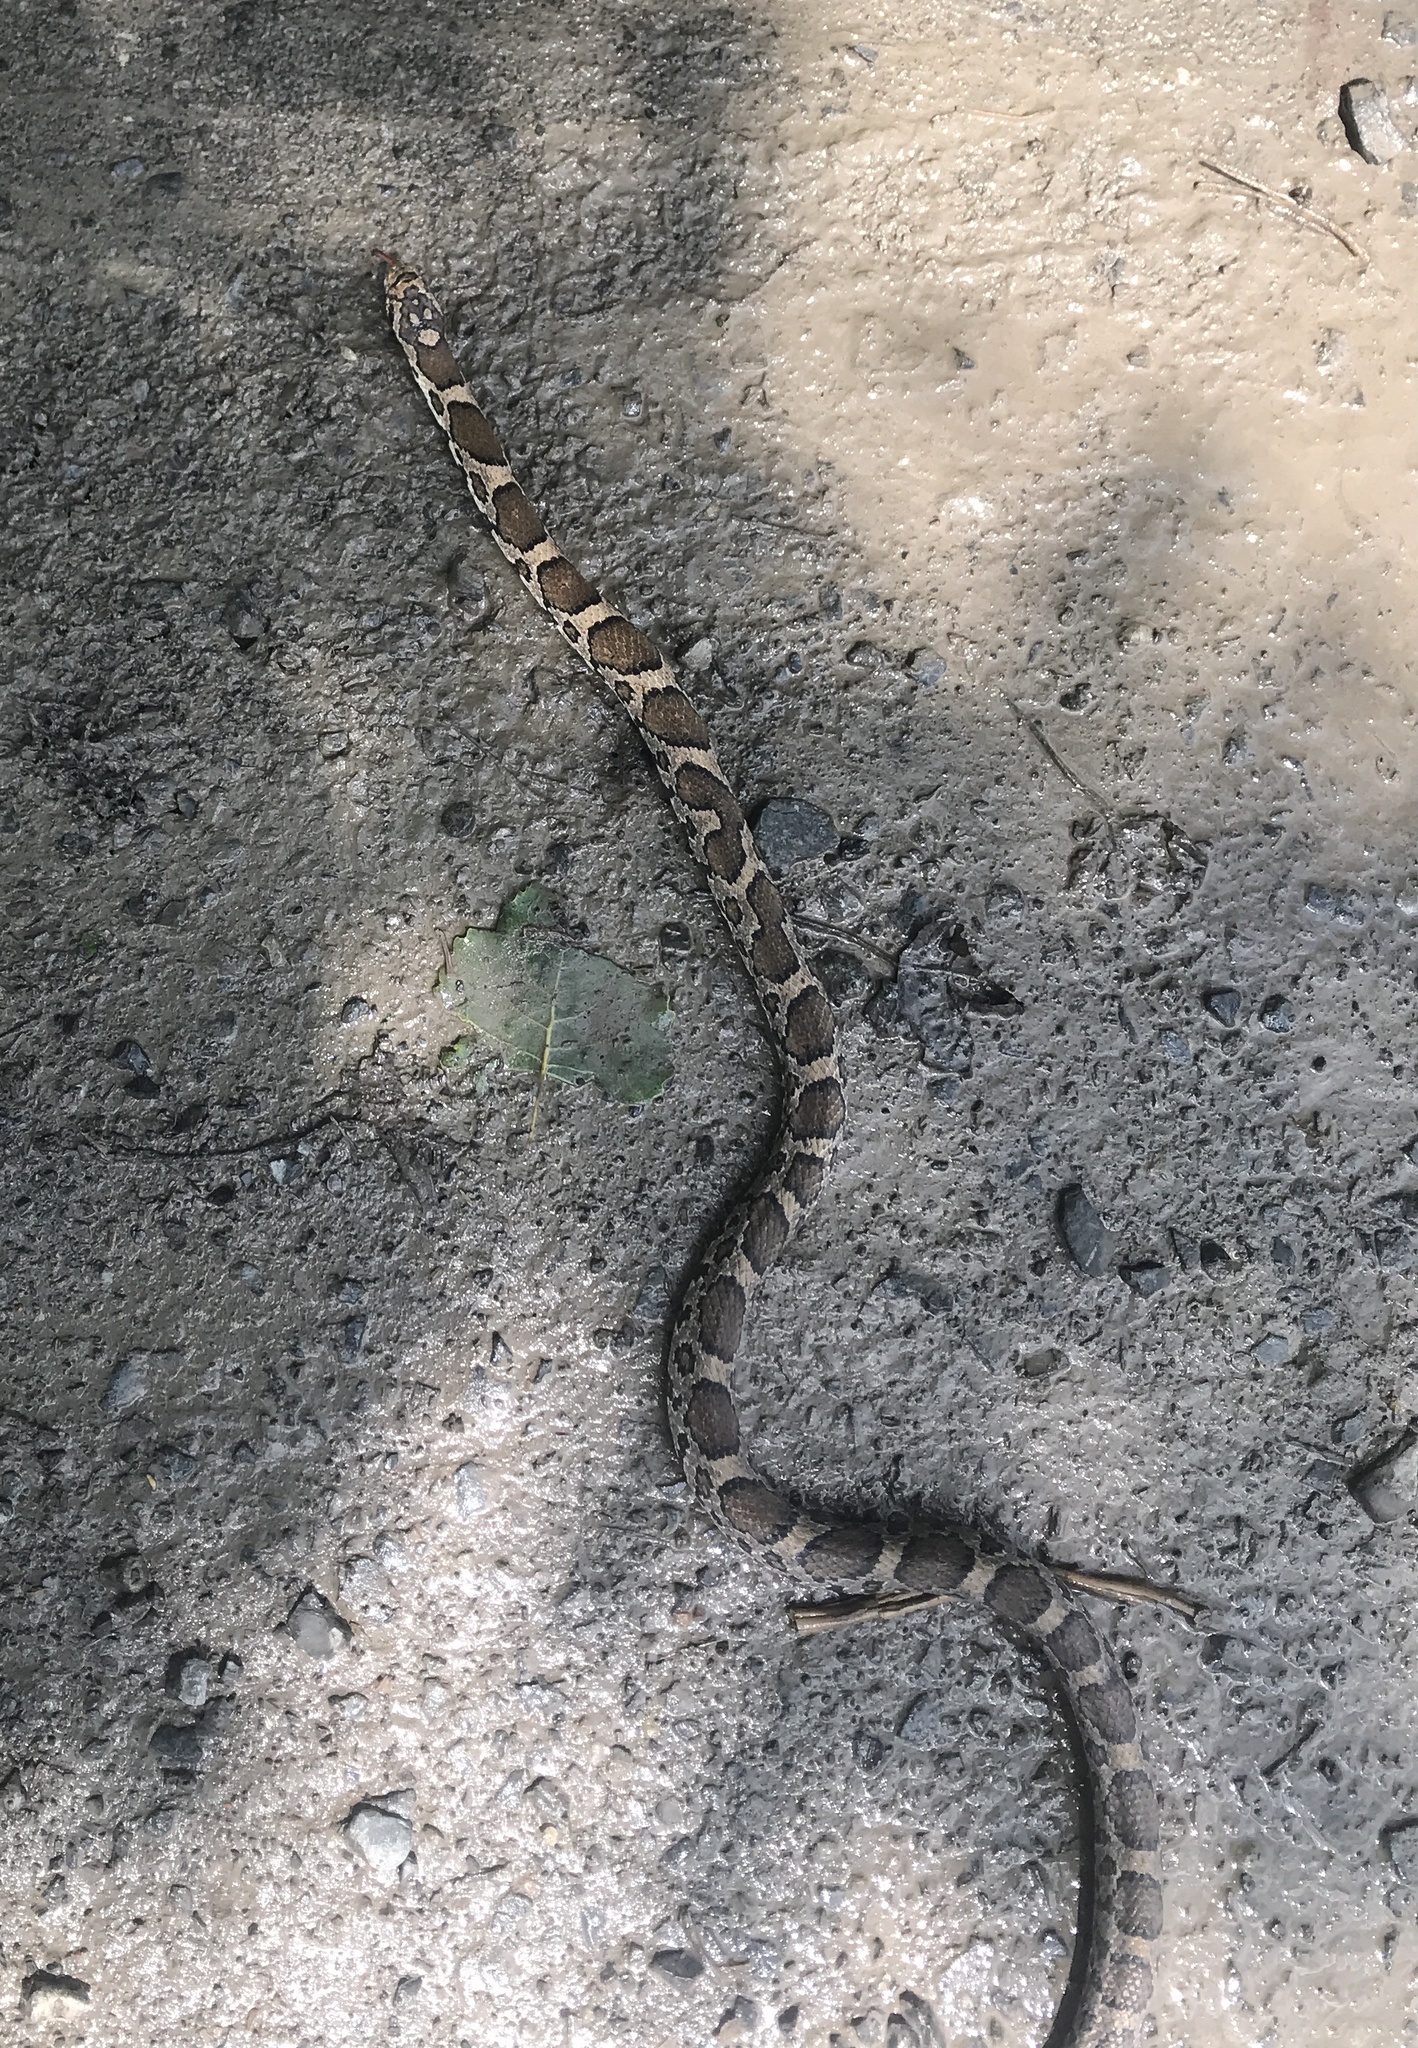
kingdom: Animalia
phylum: Chordata
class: Squamata
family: Colubridae
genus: Lampropeltis
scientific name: Lampropeltis triangulum
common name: Eastern milksnake
